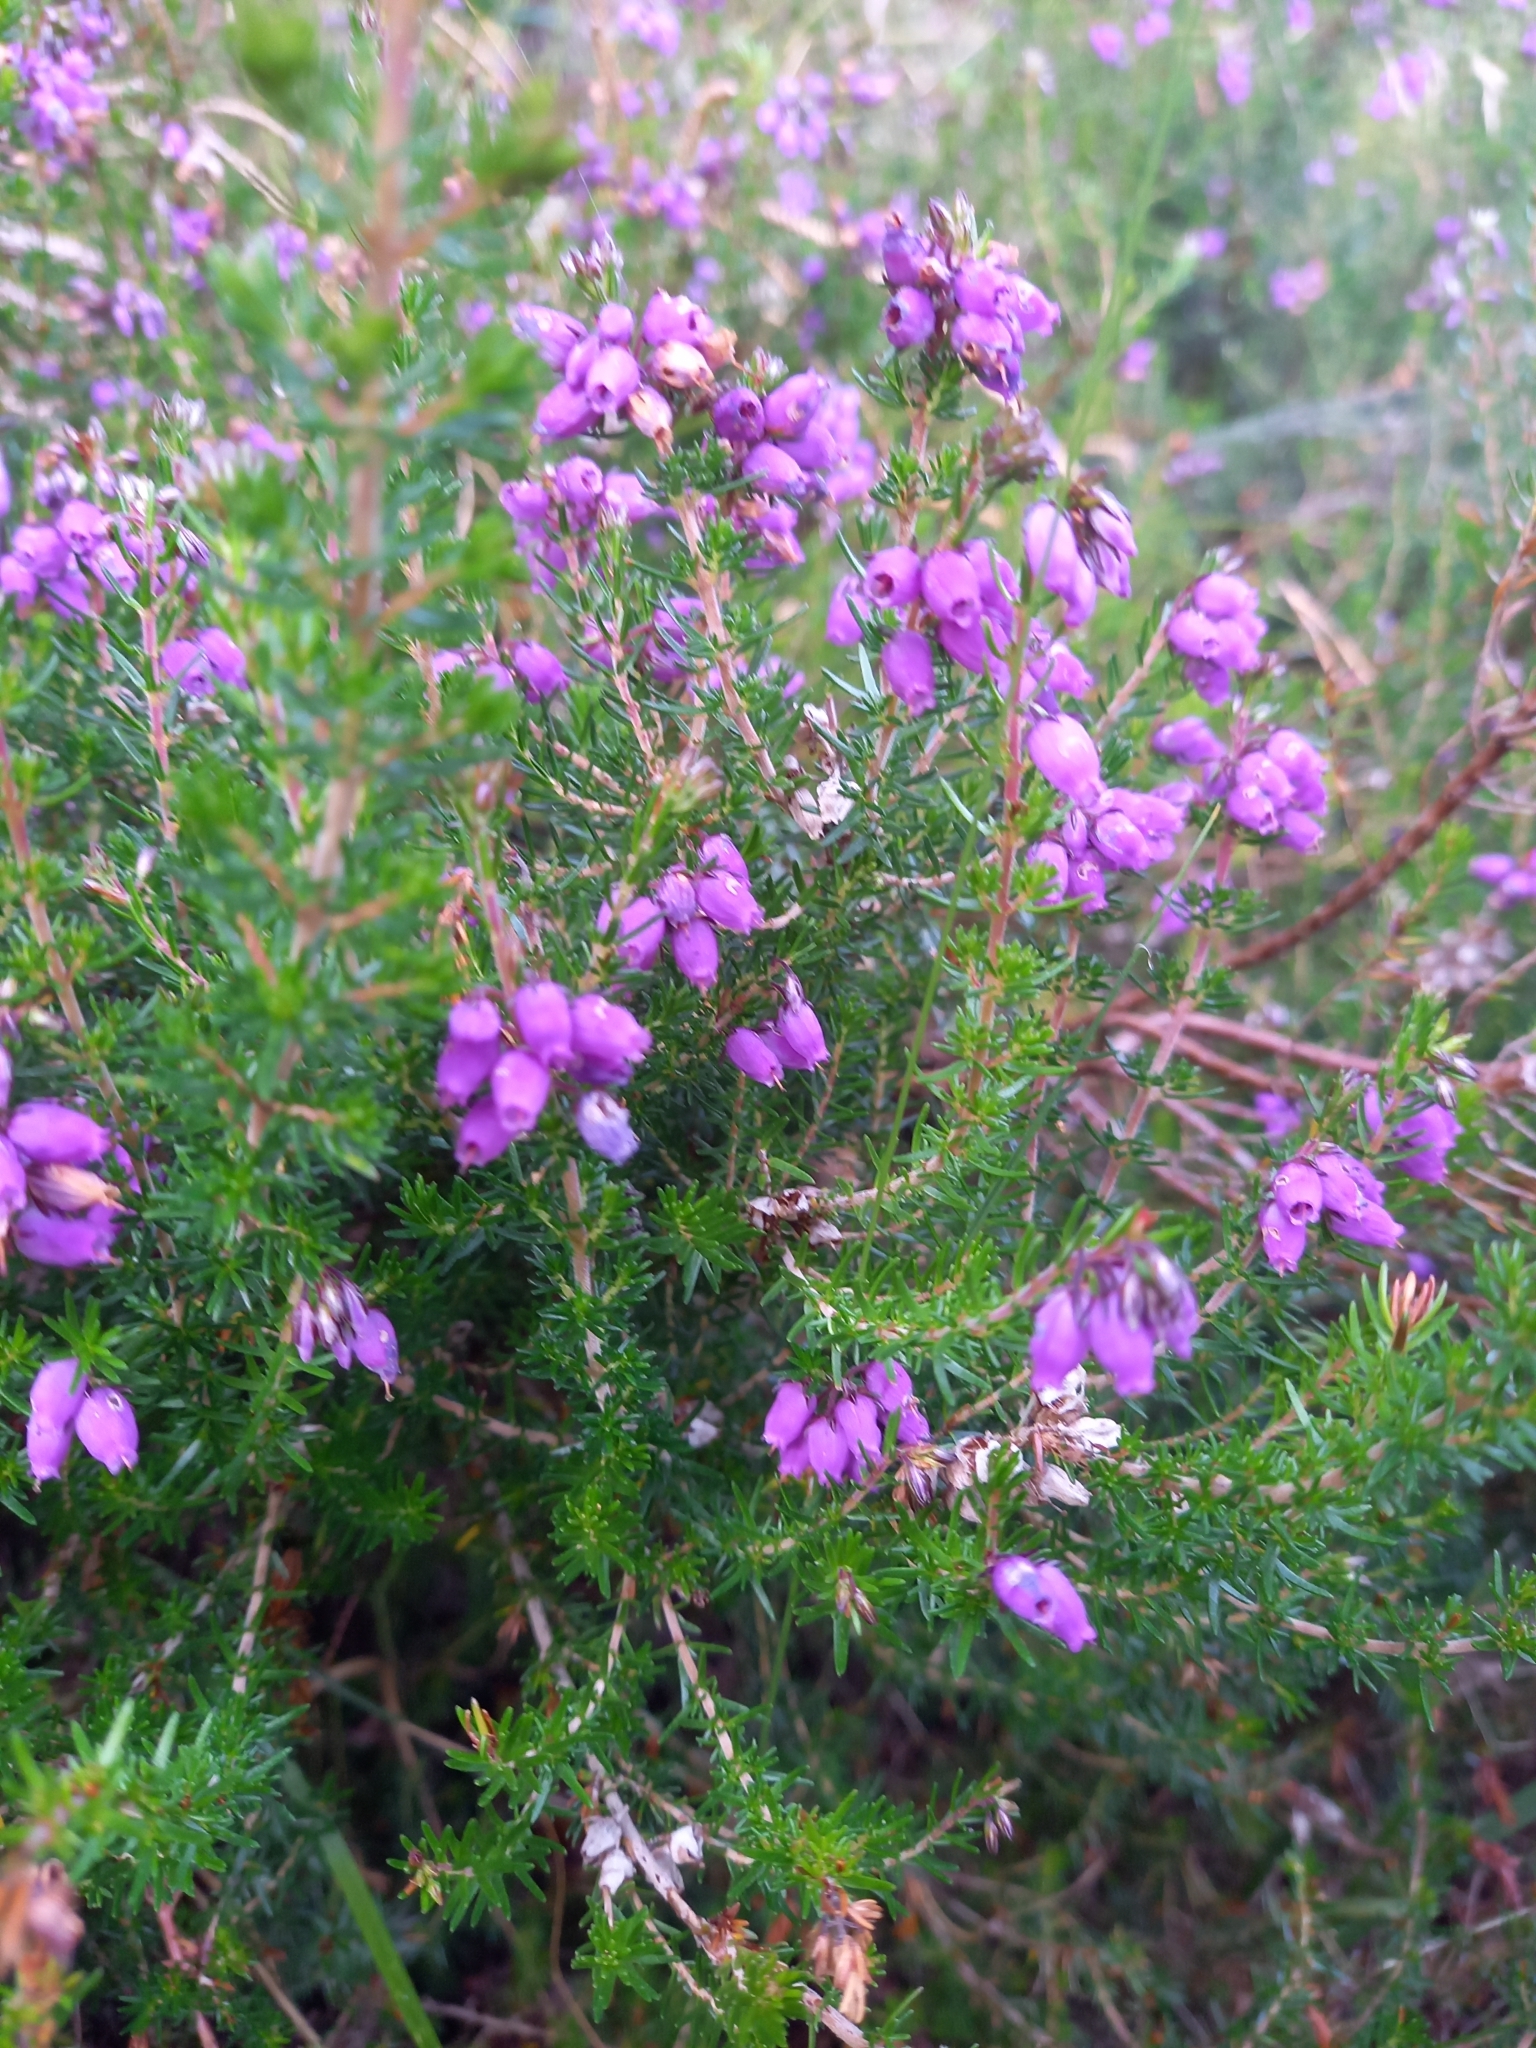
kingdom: Plantae
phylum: Tracheophyta
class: Magnoliopsida
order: Ericales
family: Ericaceae
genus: Erica
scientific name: Erica cinerea
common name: Bell heather
